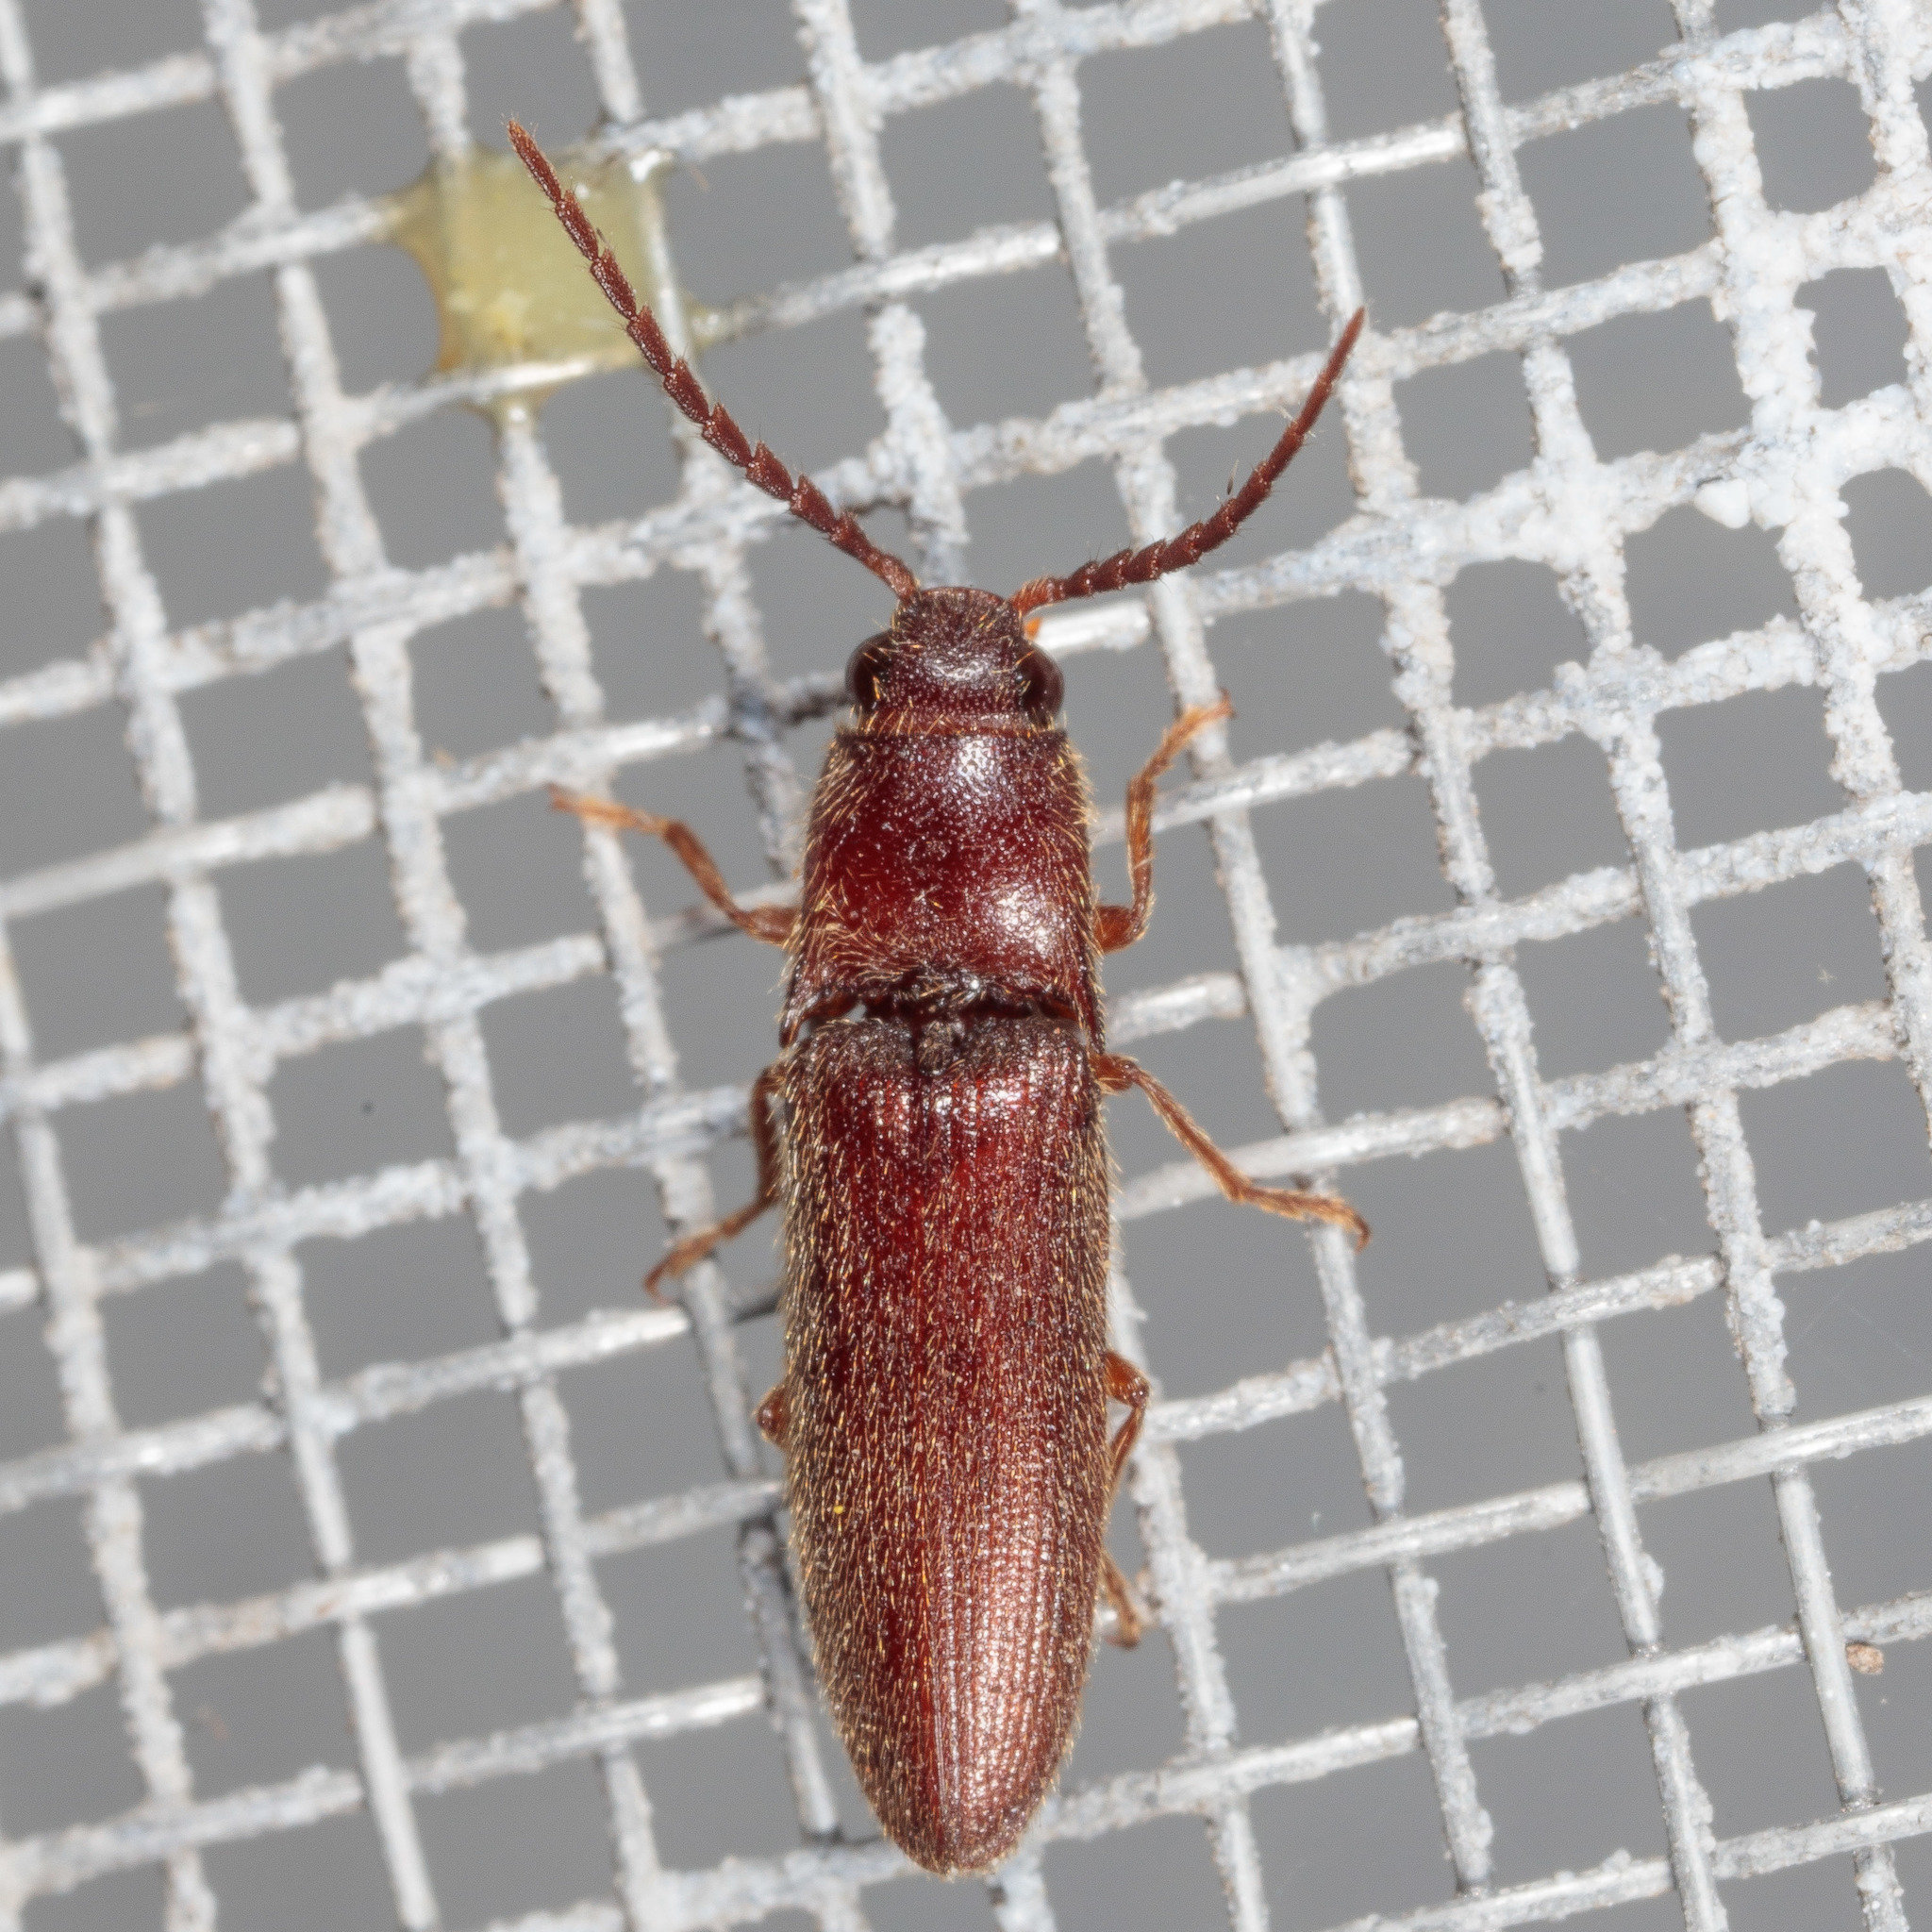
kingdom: Animalia
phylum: Arthropoda
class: Insecta
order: Coleoptera
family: Elateridae
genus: Dipropus
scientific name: Dipropus
